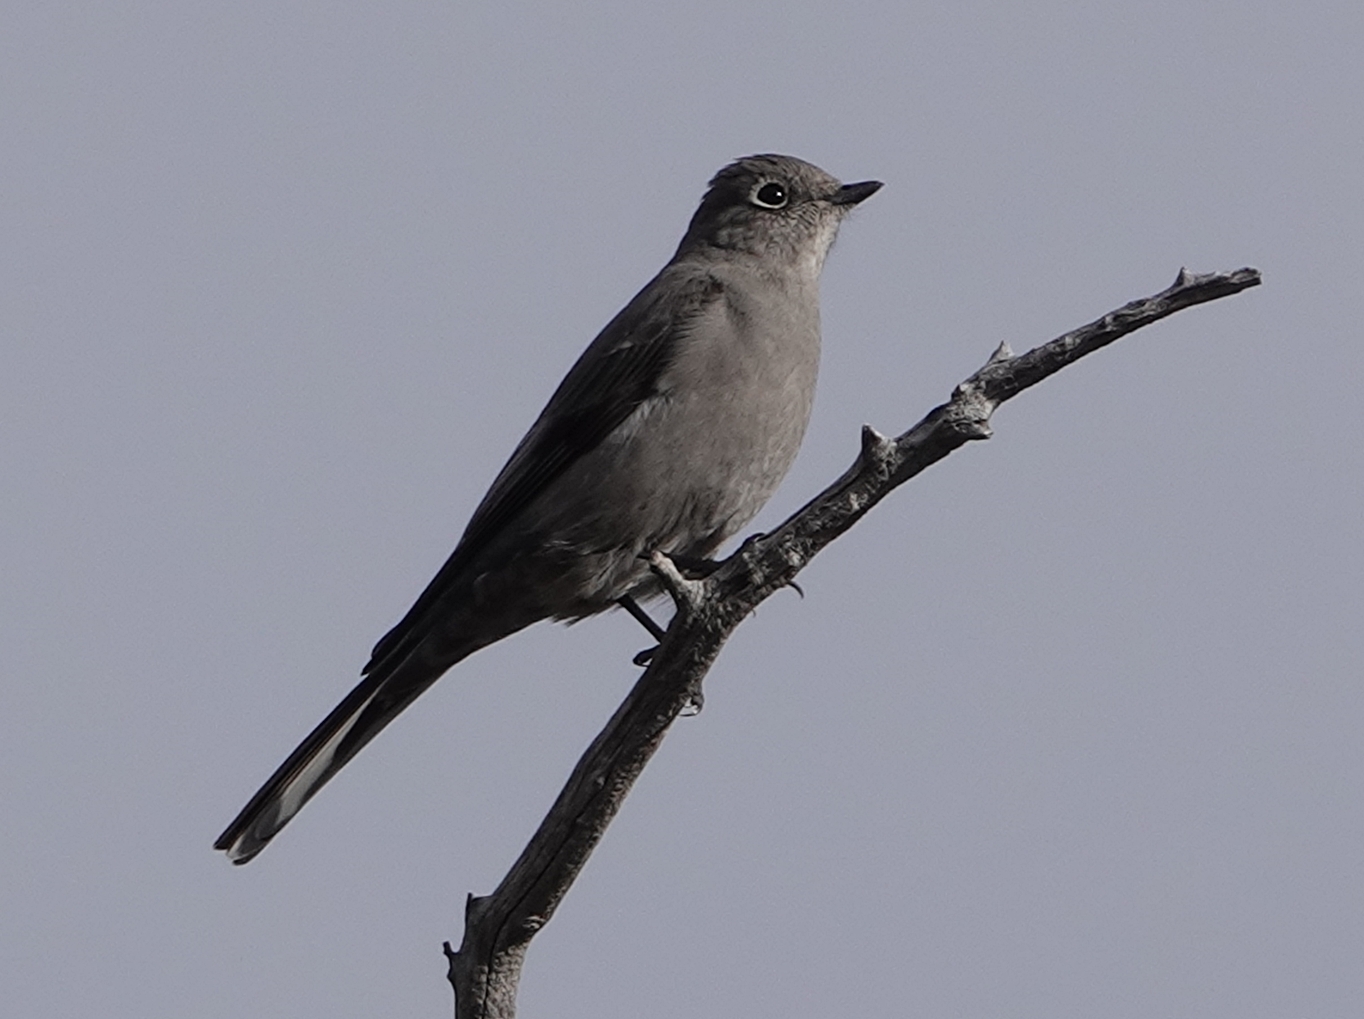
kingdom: Animalia
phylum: Chordata
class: Aves
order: Passeriformes
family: Turdidae
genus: Myadestes
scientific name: Myadestes townsendi
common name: Townsend's solitaire
